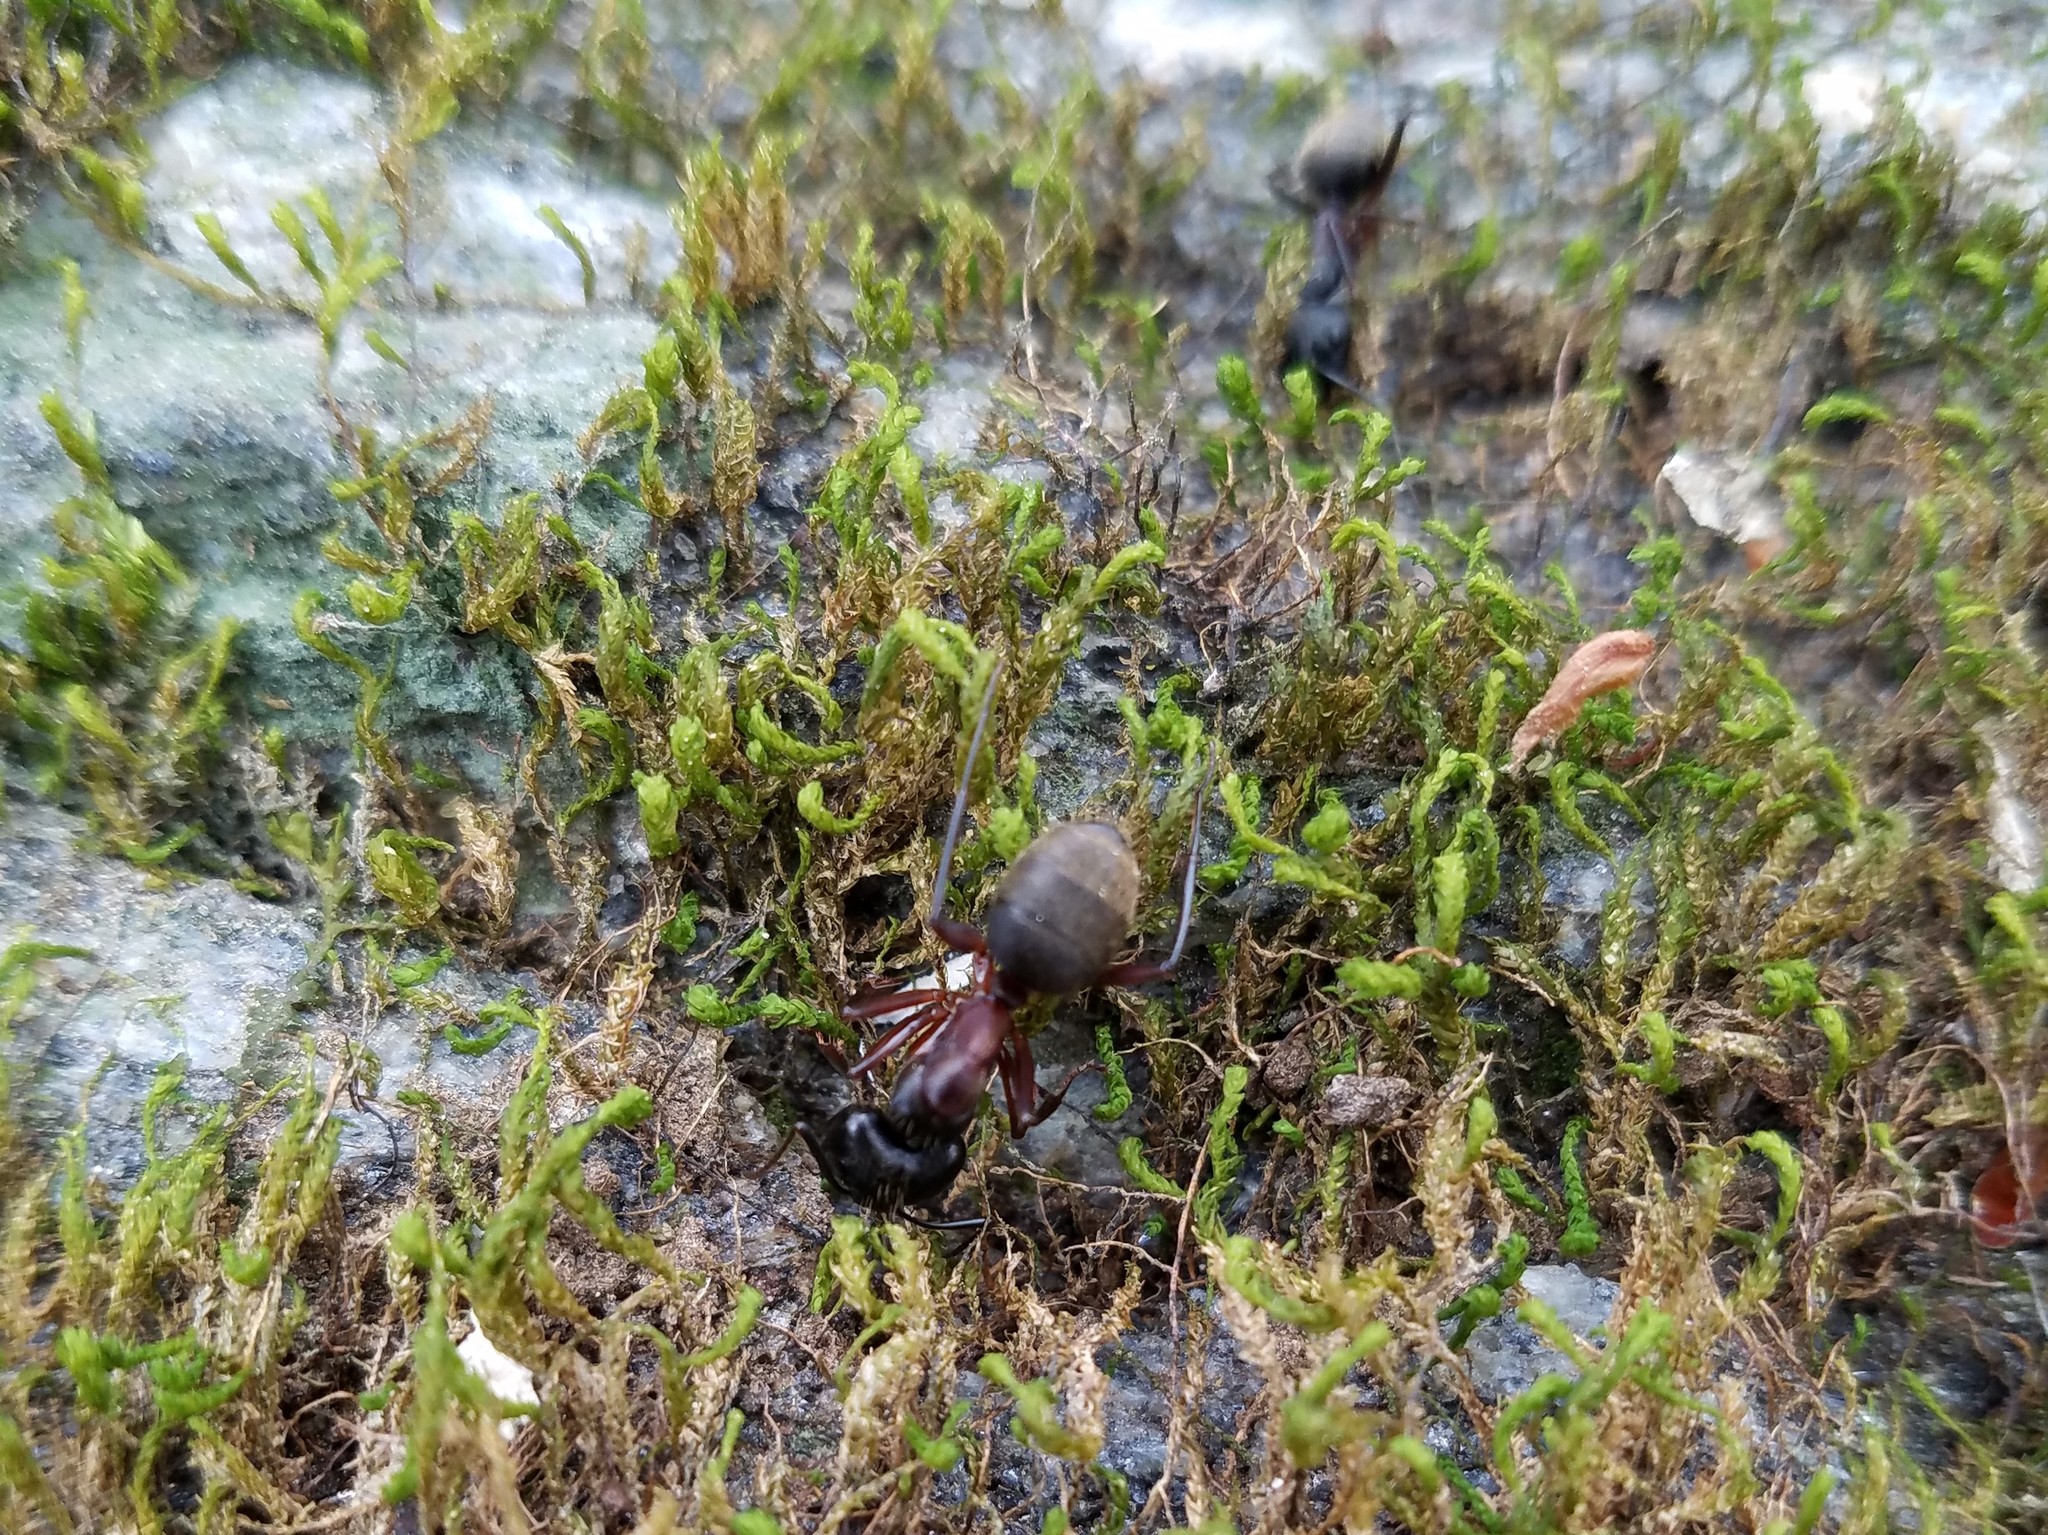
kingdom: Animalia
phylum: Arthropoda
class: Insecta
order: Hymenoptera
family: Formicidae
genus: Camponotus
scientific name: Camponotus chromaiodes
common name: Red carpenter ant
